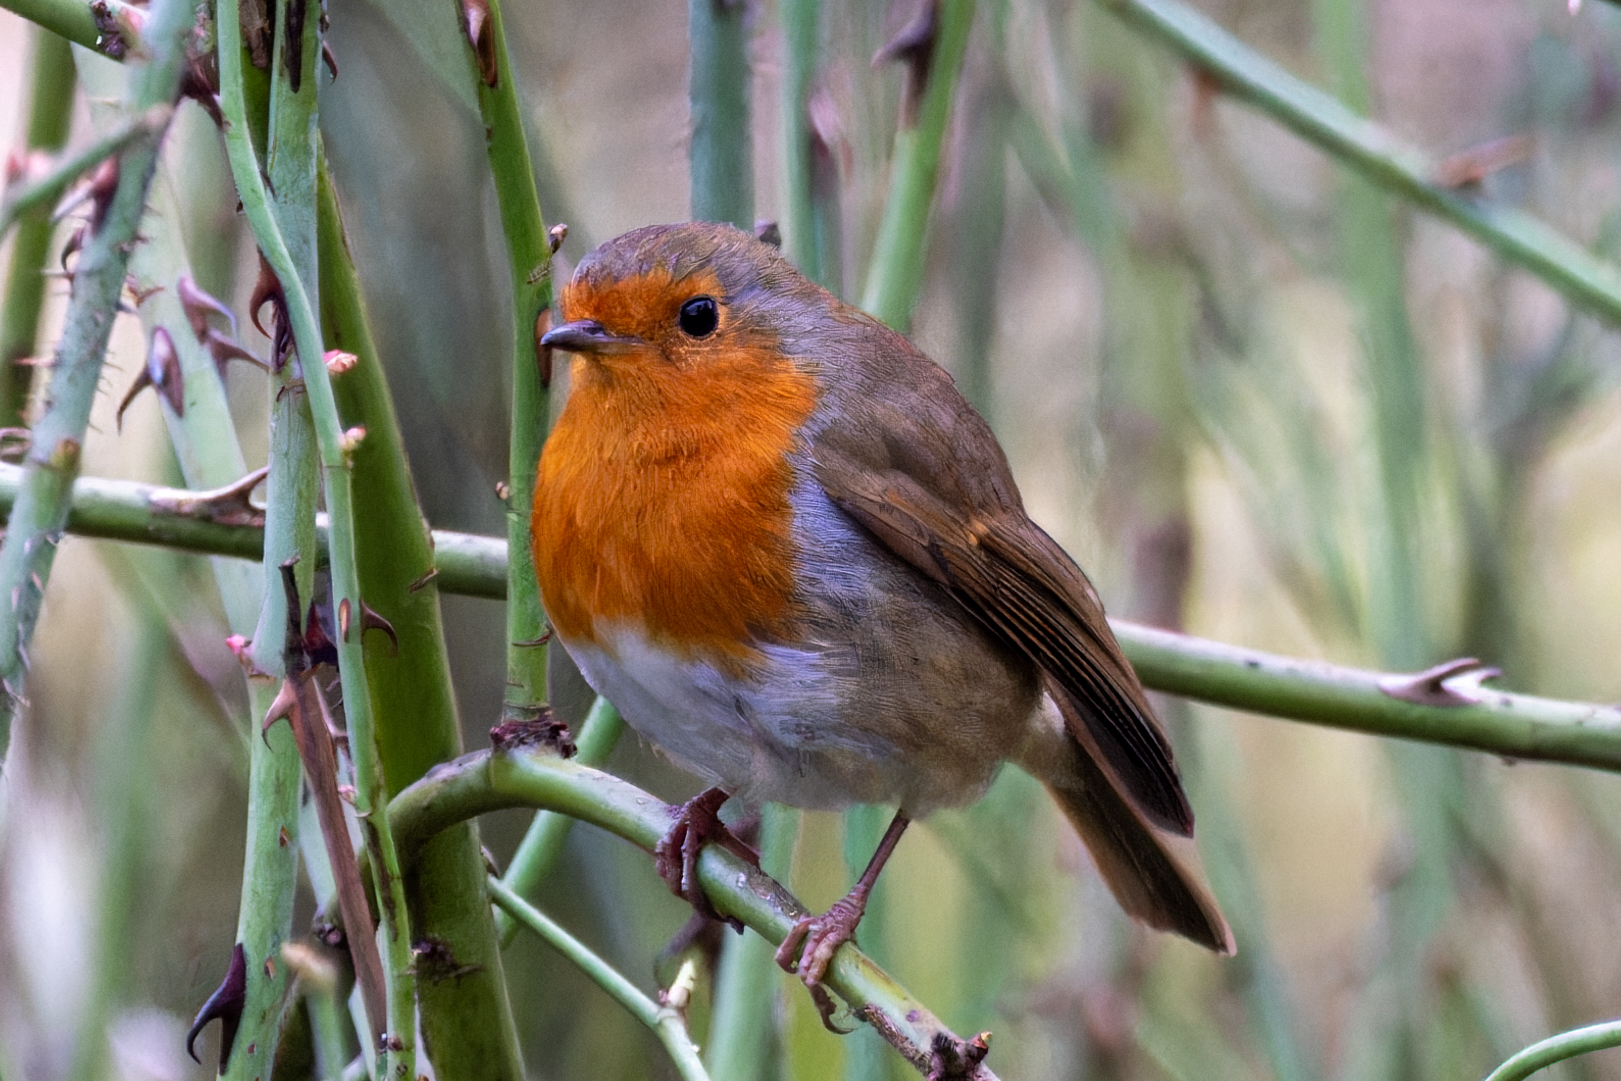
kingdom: Animalia
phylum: Chordata
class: Aves
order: Passeriformes
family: Muscicapidae
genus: Erithacus
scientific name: Erithacus rubecula
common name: European robin
